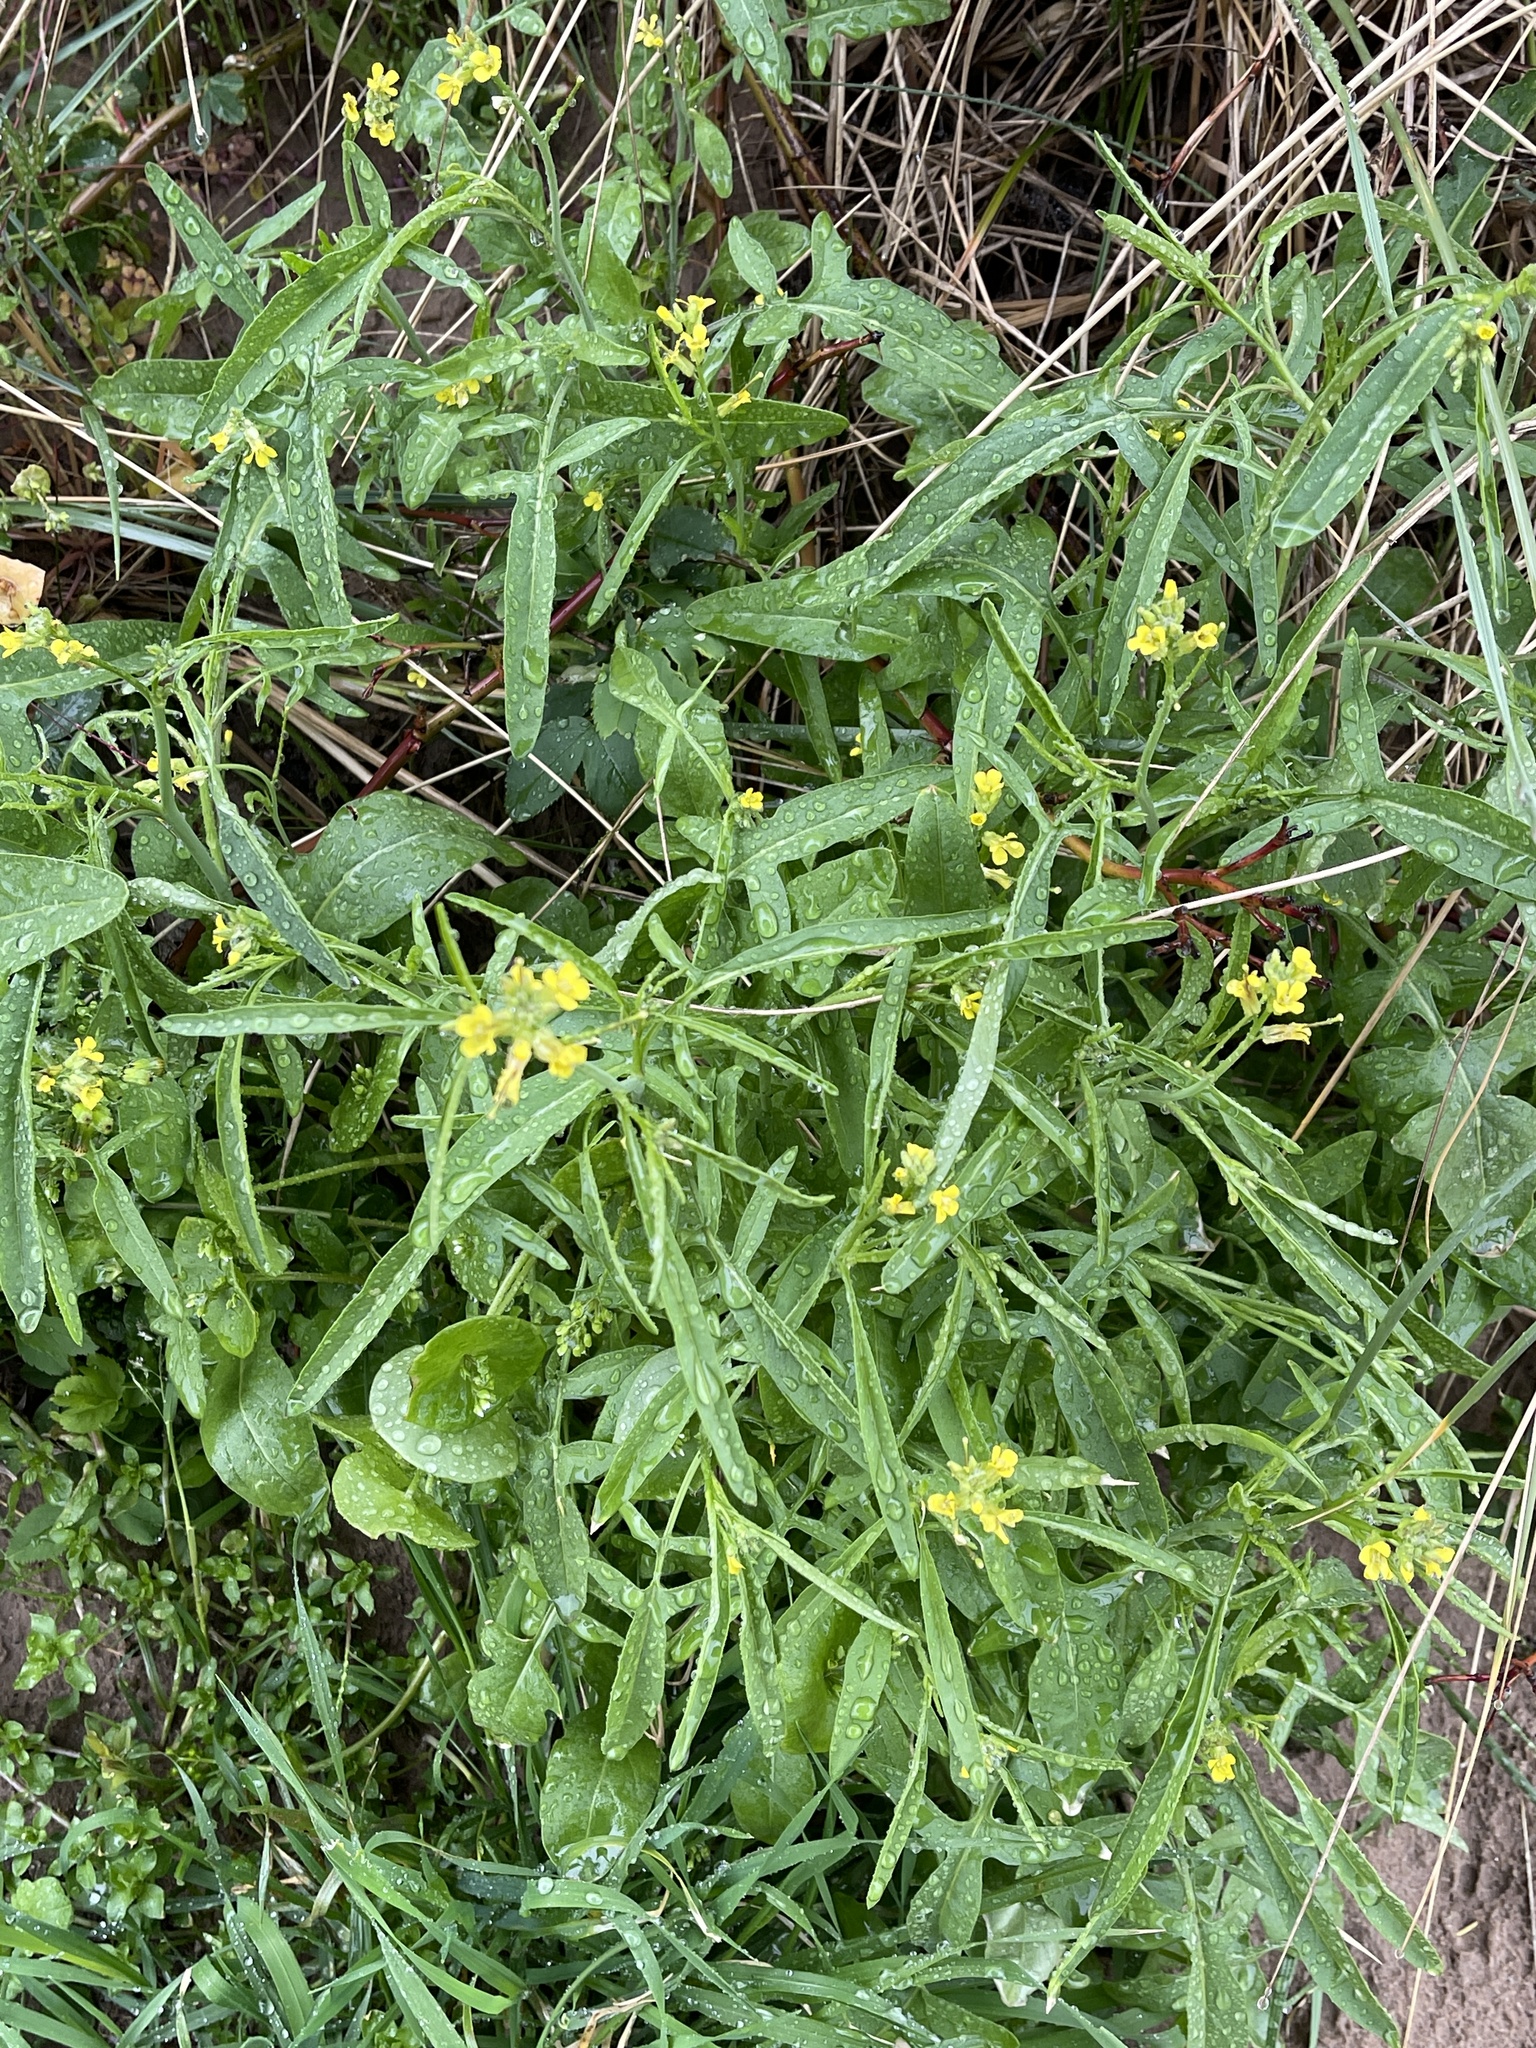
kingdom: Plantae
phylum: Tracheophyta
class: Magnoliopsida
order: Brassicales
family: Brassicaceae
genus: Sisymbrium
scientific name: Sisymbrium orientale
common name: Eastern rocket
